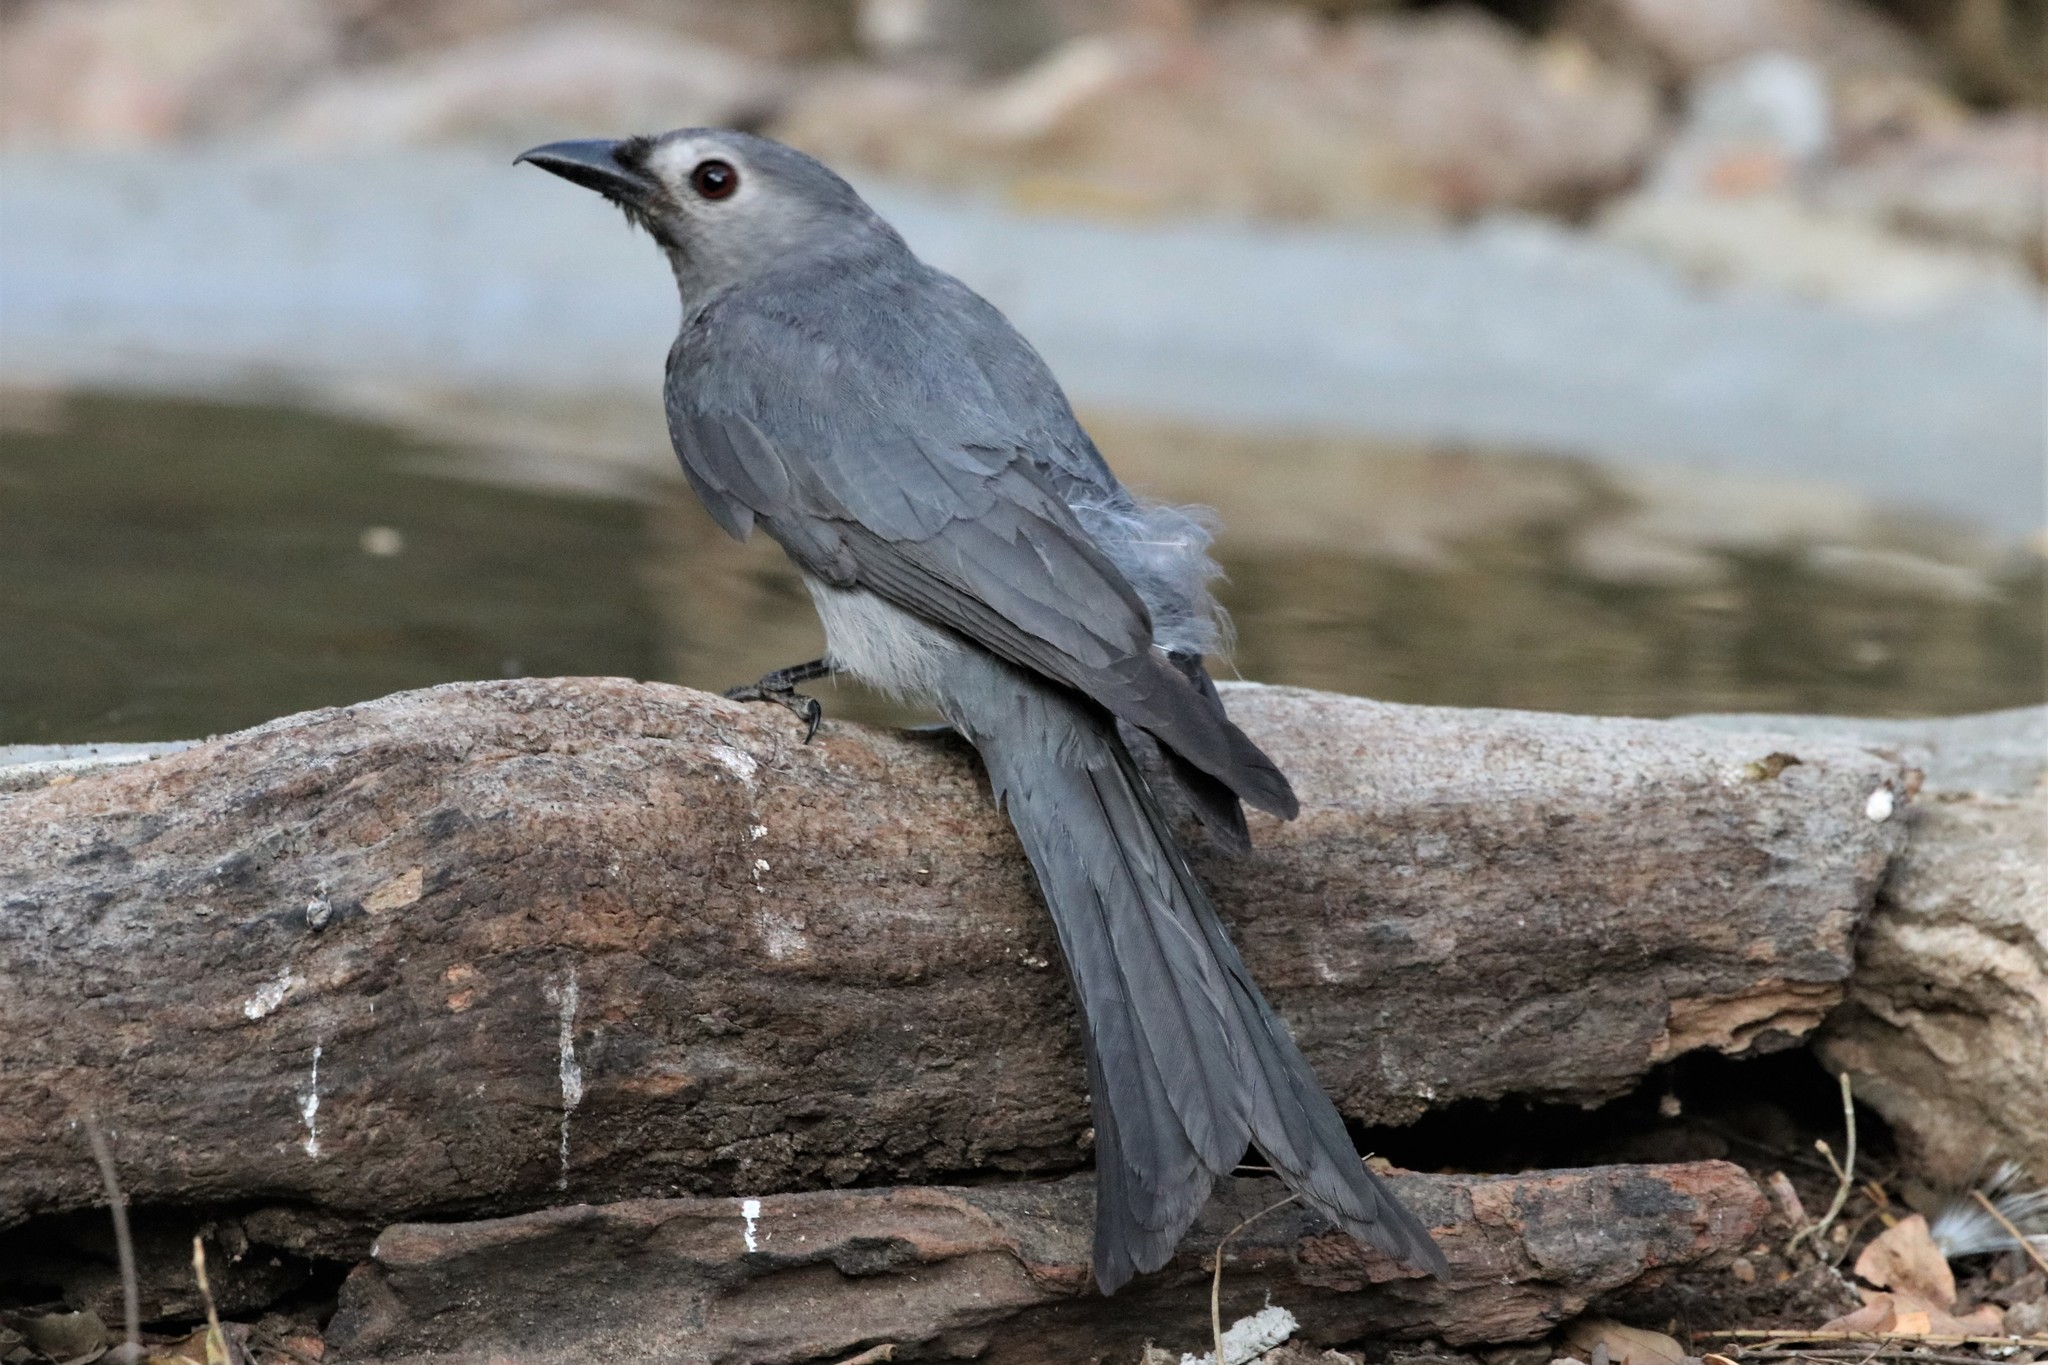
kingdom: Animalia
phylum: Chordata
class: Aves
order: Passeriformes
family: Dicruridae
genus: Dicrurus
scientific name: Dicrurus leucophaeus
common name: Ashy drongo
